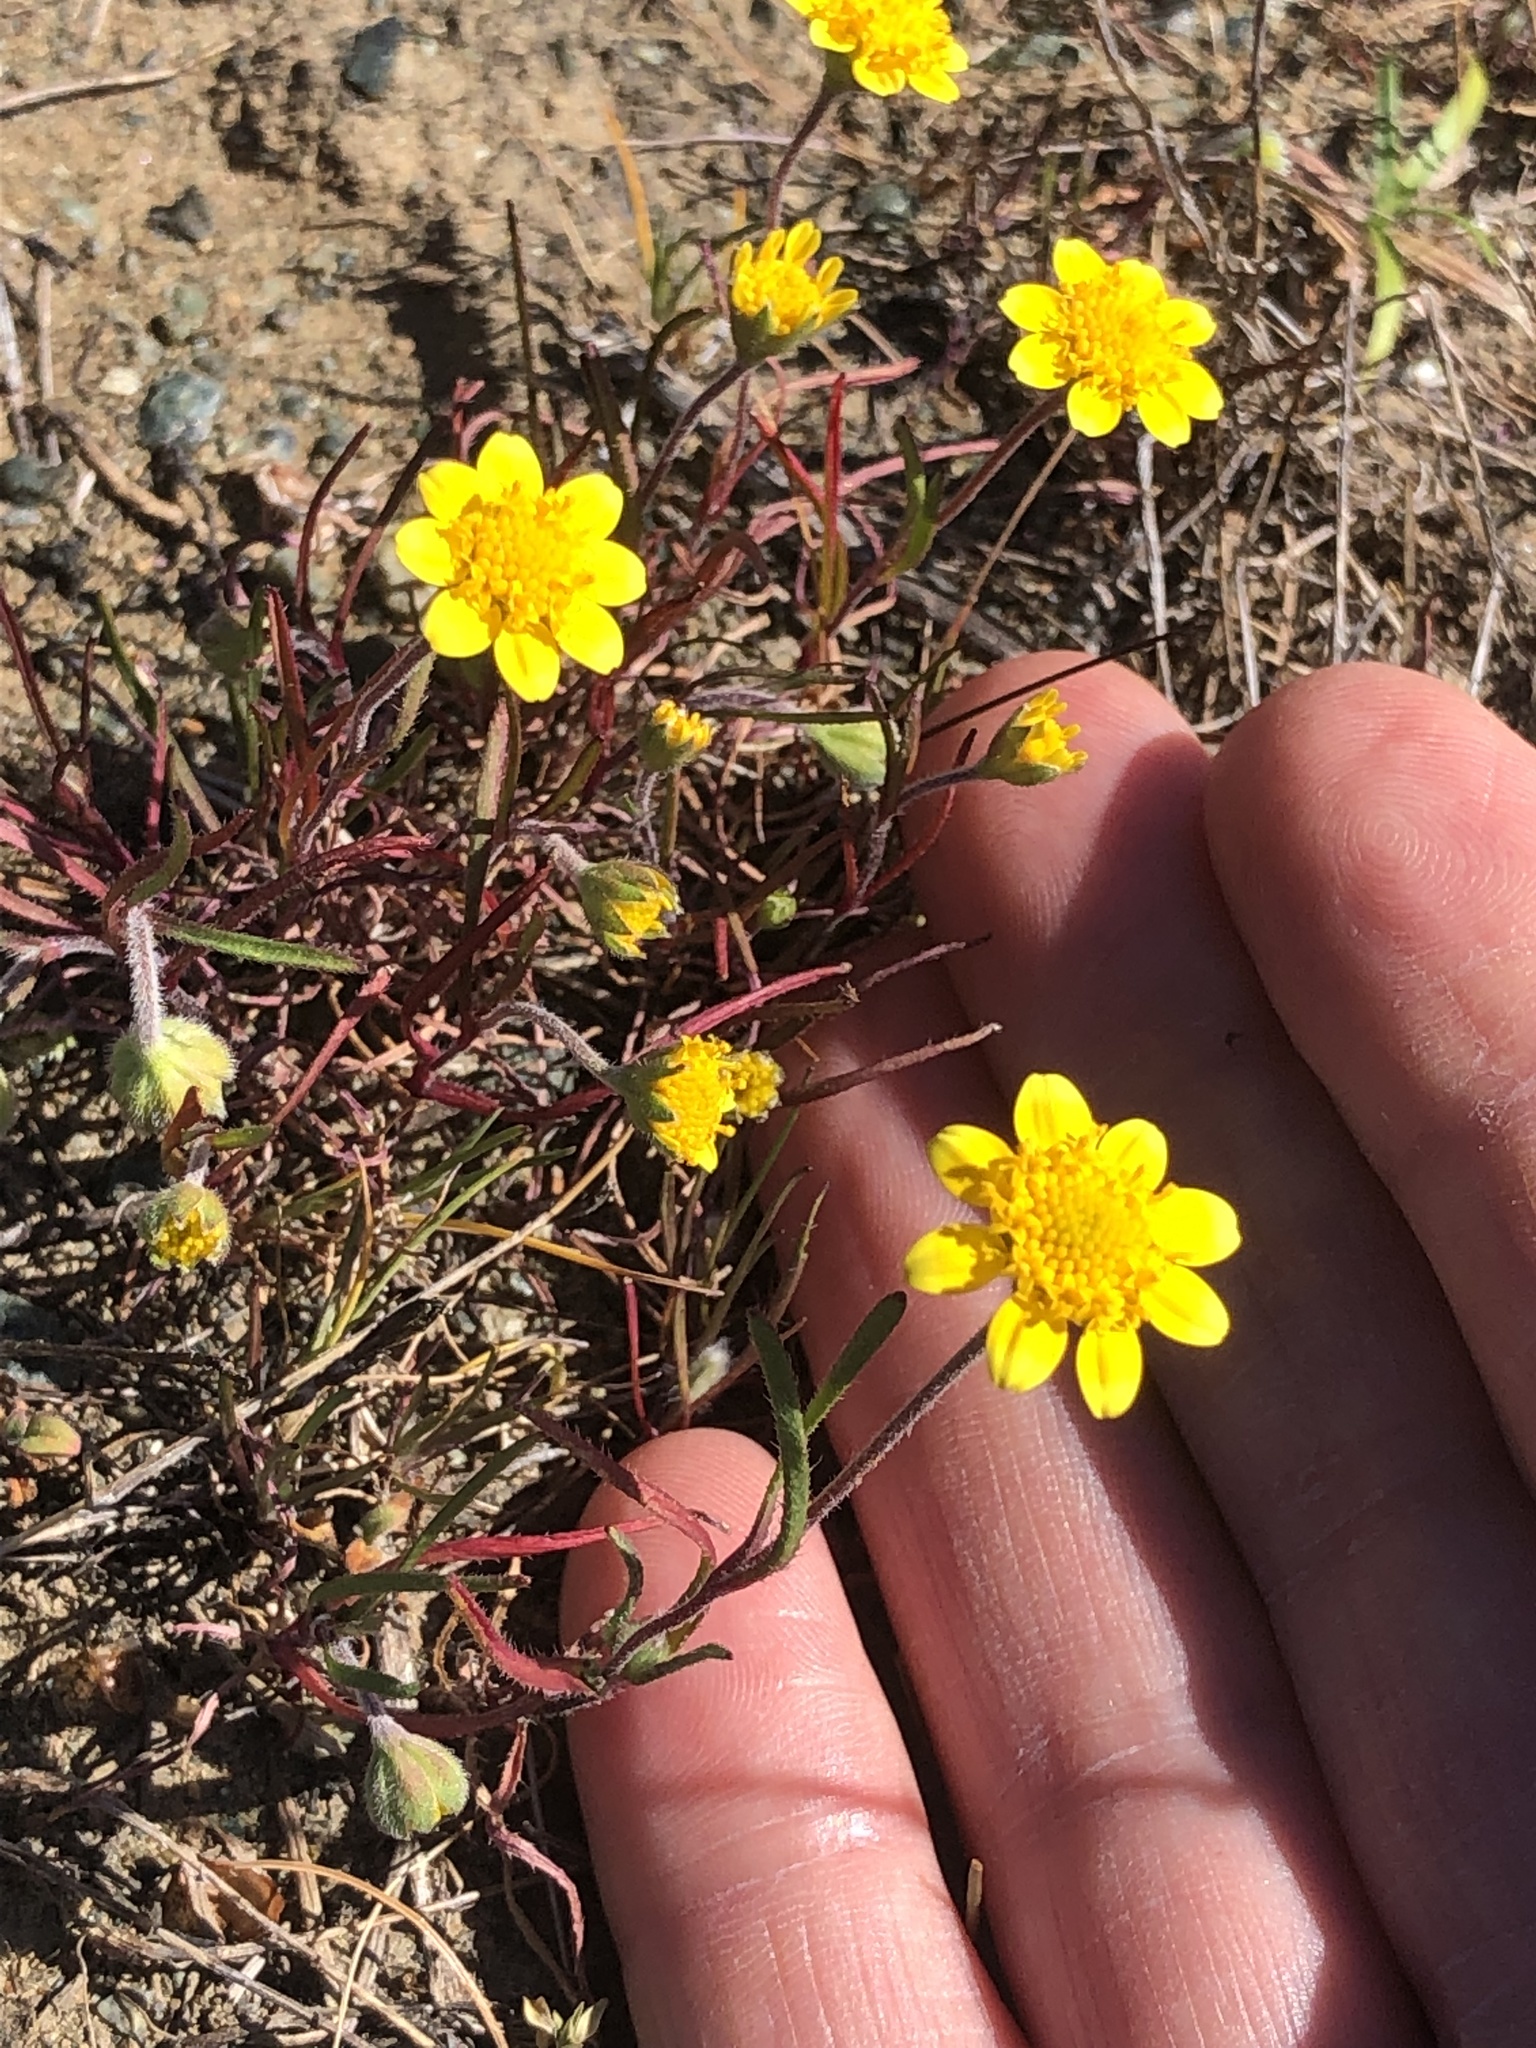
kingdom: Plantae
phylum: Tracheophyta
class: Magnoliopsida
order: Asterales
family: Asteraceae
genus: Lasthenia
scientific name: Lasthenia californica
